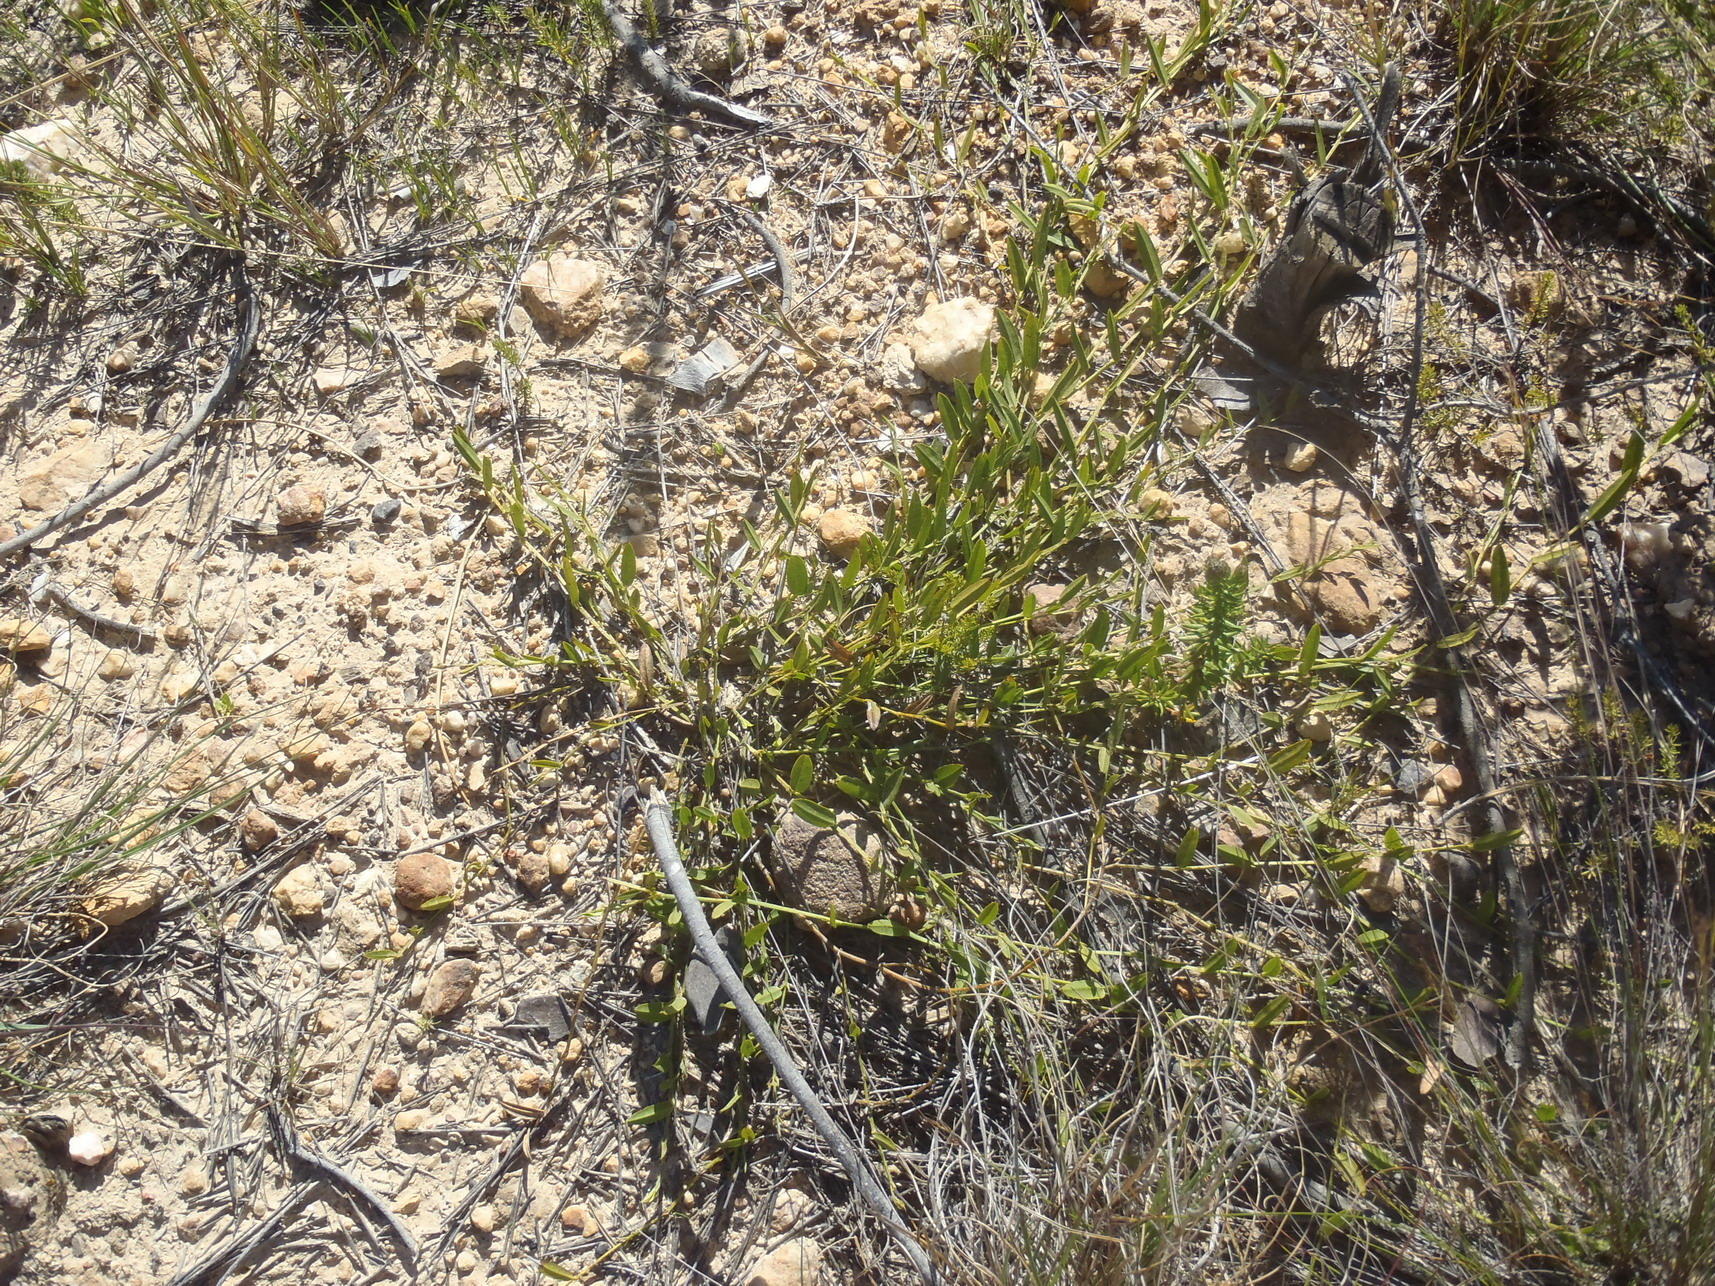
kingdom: Plantae
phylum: Tracheophyta
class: Magnoliopsida
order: Fabales
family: Fabaceae
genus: Psoralea
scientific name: Psoralea plauta
